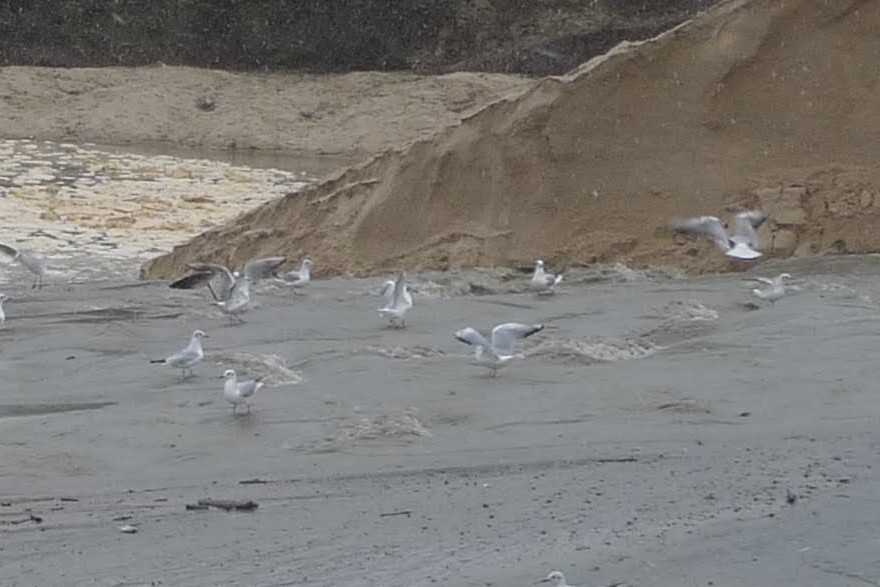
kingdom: Animalia
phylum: Chordata
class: Aves
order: Charadriiformes
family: Laridae
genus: Chroicocephalus
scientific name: Chroicocephalus ridibundus
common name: Black-headed gull
